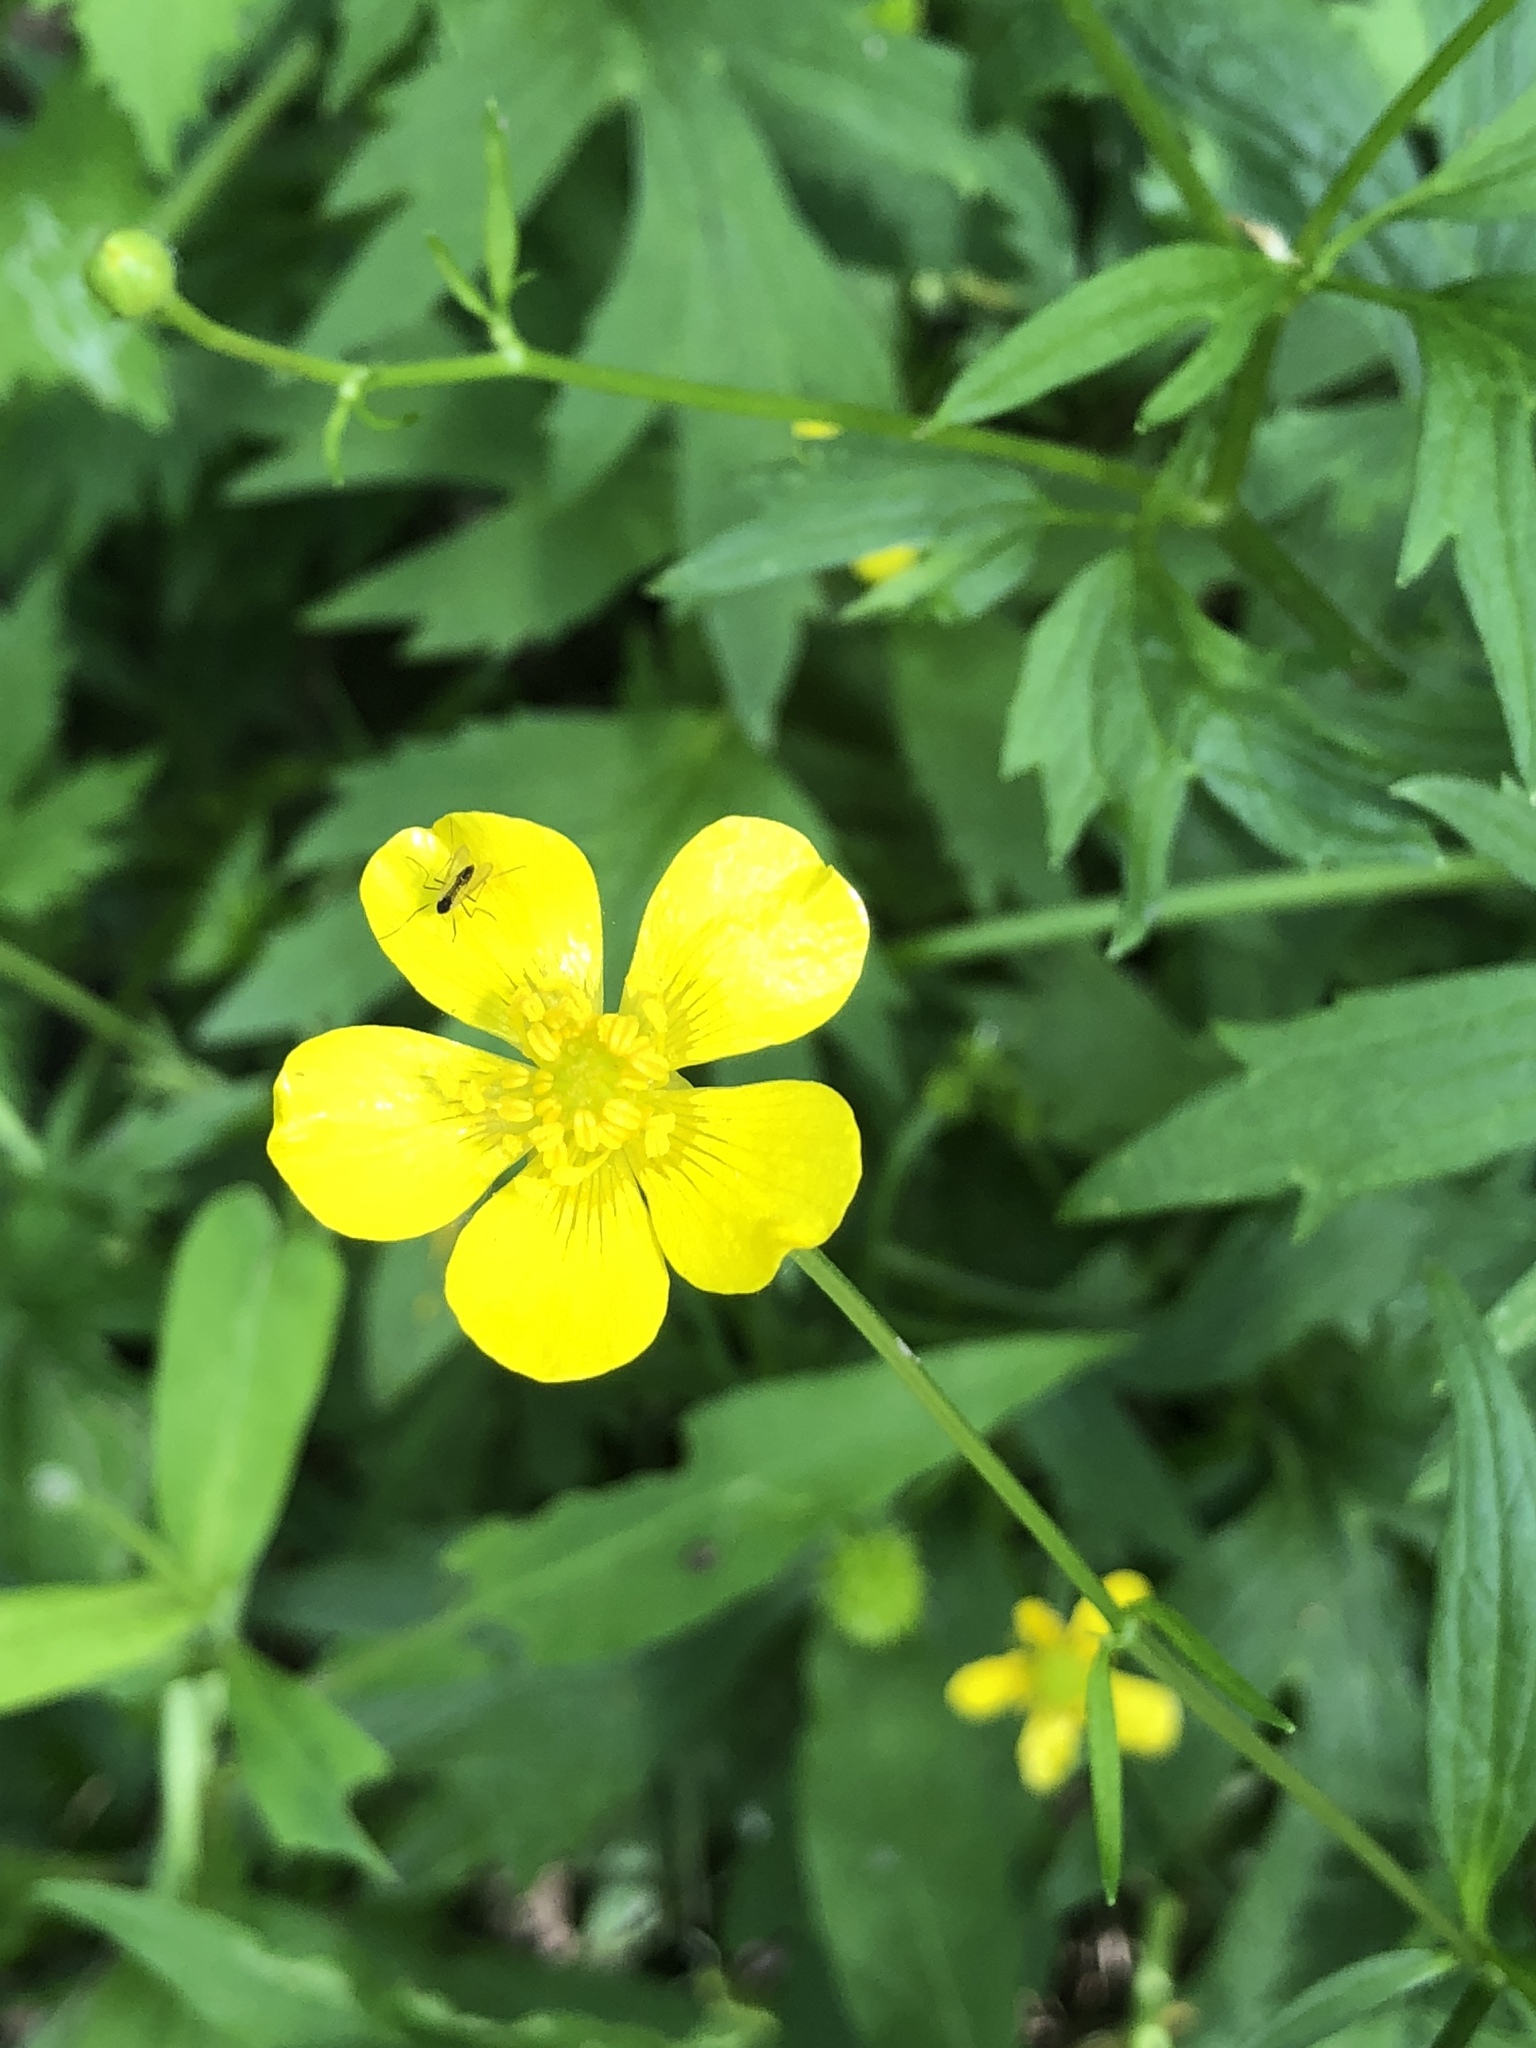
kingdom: Plantae
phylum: Tracheophyta
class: Magnoliopsida
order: Ranunculales
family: Ranunculaceae
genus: Ranunculus
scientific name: Ranunculus hispidus
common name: Bristly buttercup
